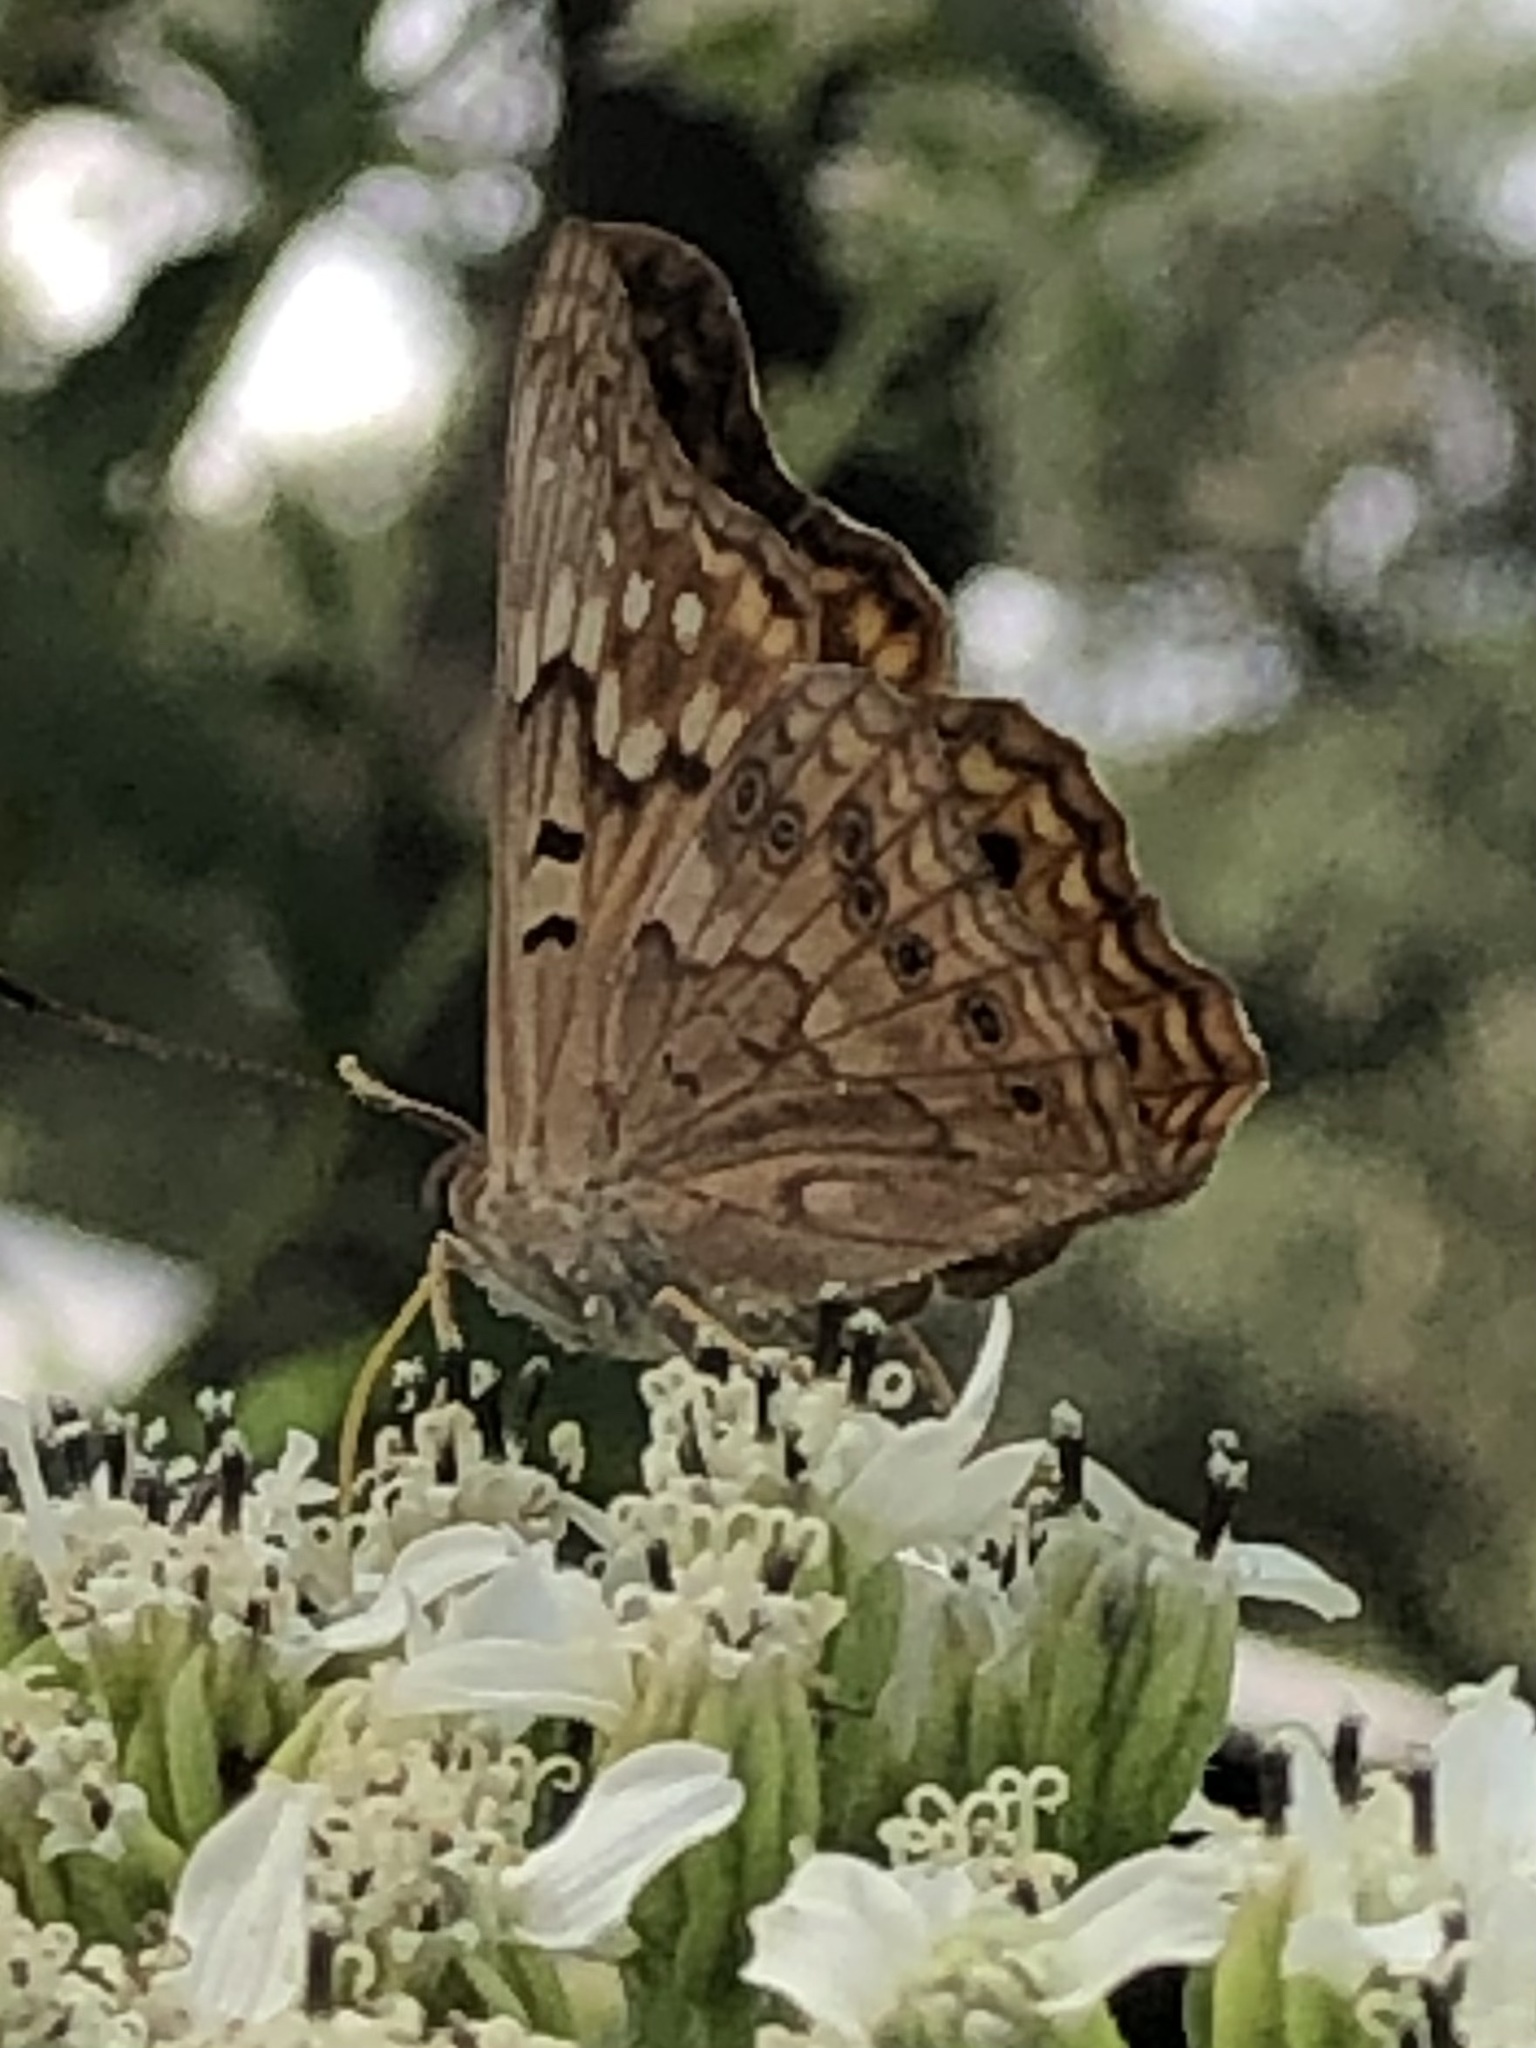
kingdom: Animalia
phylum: Arthropoda
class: Insecta
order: Lepidoptera
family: Nymphalidae
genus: Asterocampa
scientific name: Asterocampa clyton
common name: Tawny emperor
